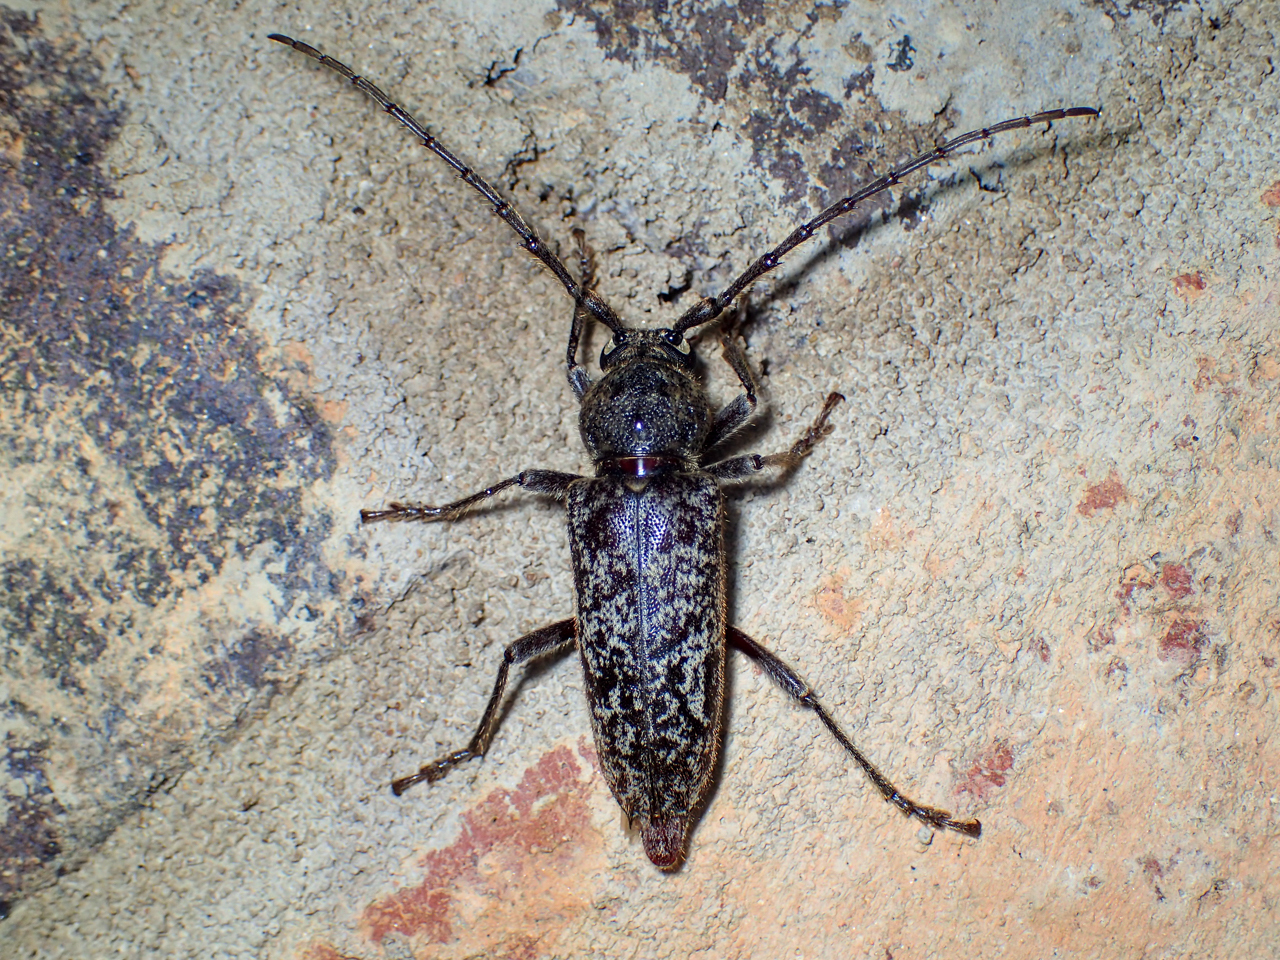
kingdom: Animalia
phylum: Arthropoda
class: Insecta
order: Coleoptera
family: Cerambycidae
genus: Enaphalodes
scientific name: Enaphalodes atomarius
